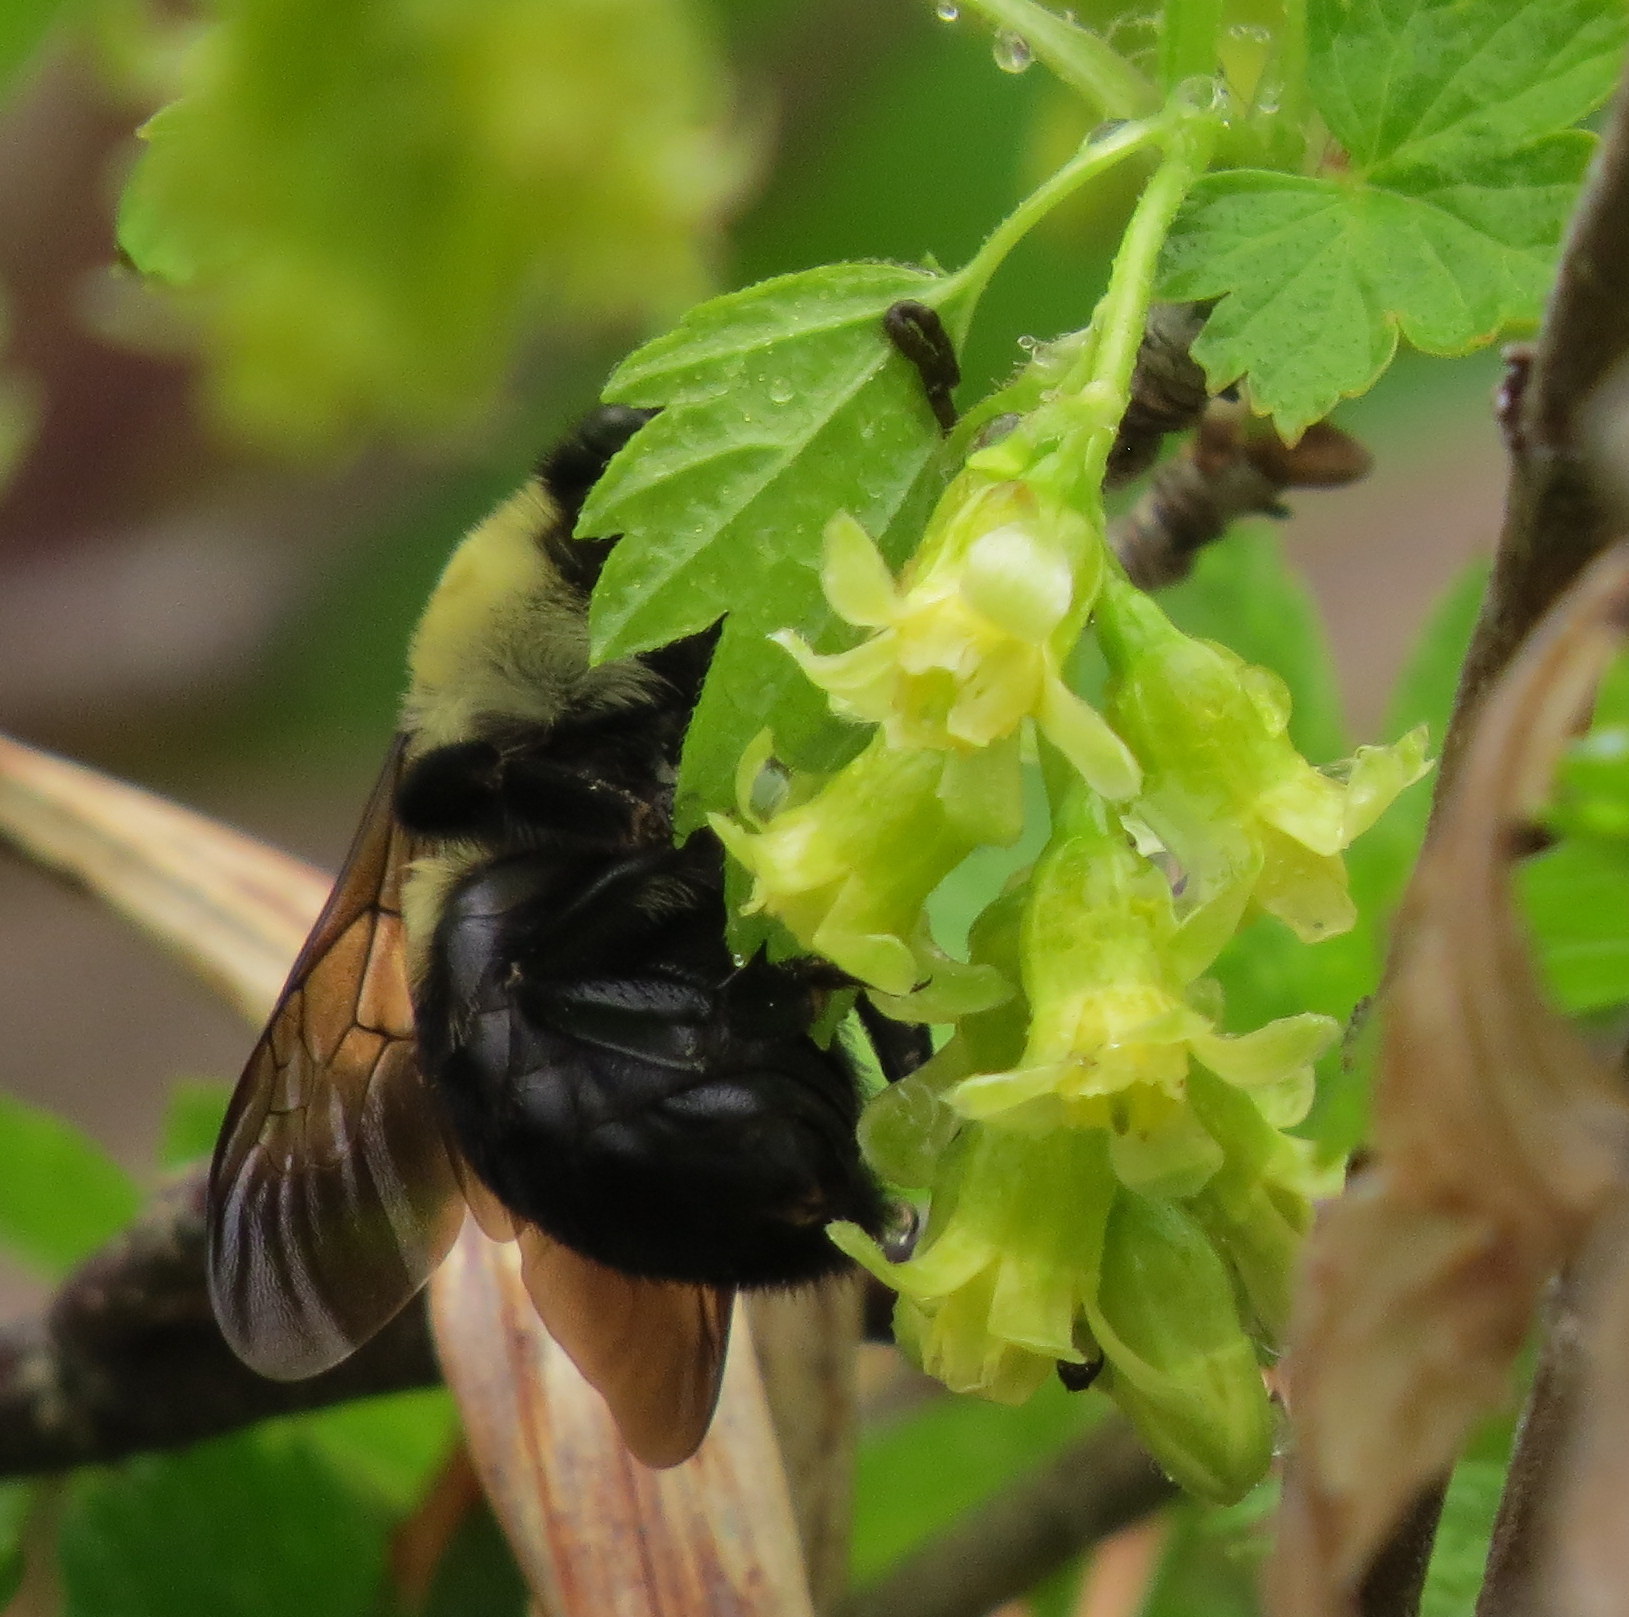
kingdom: Animalia
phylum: Arthropoda
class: Insecta
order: Hymenoptera
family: Apidae
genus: Bombus
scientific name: Bombus griseocollis
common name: Brown-belted bumble bee
